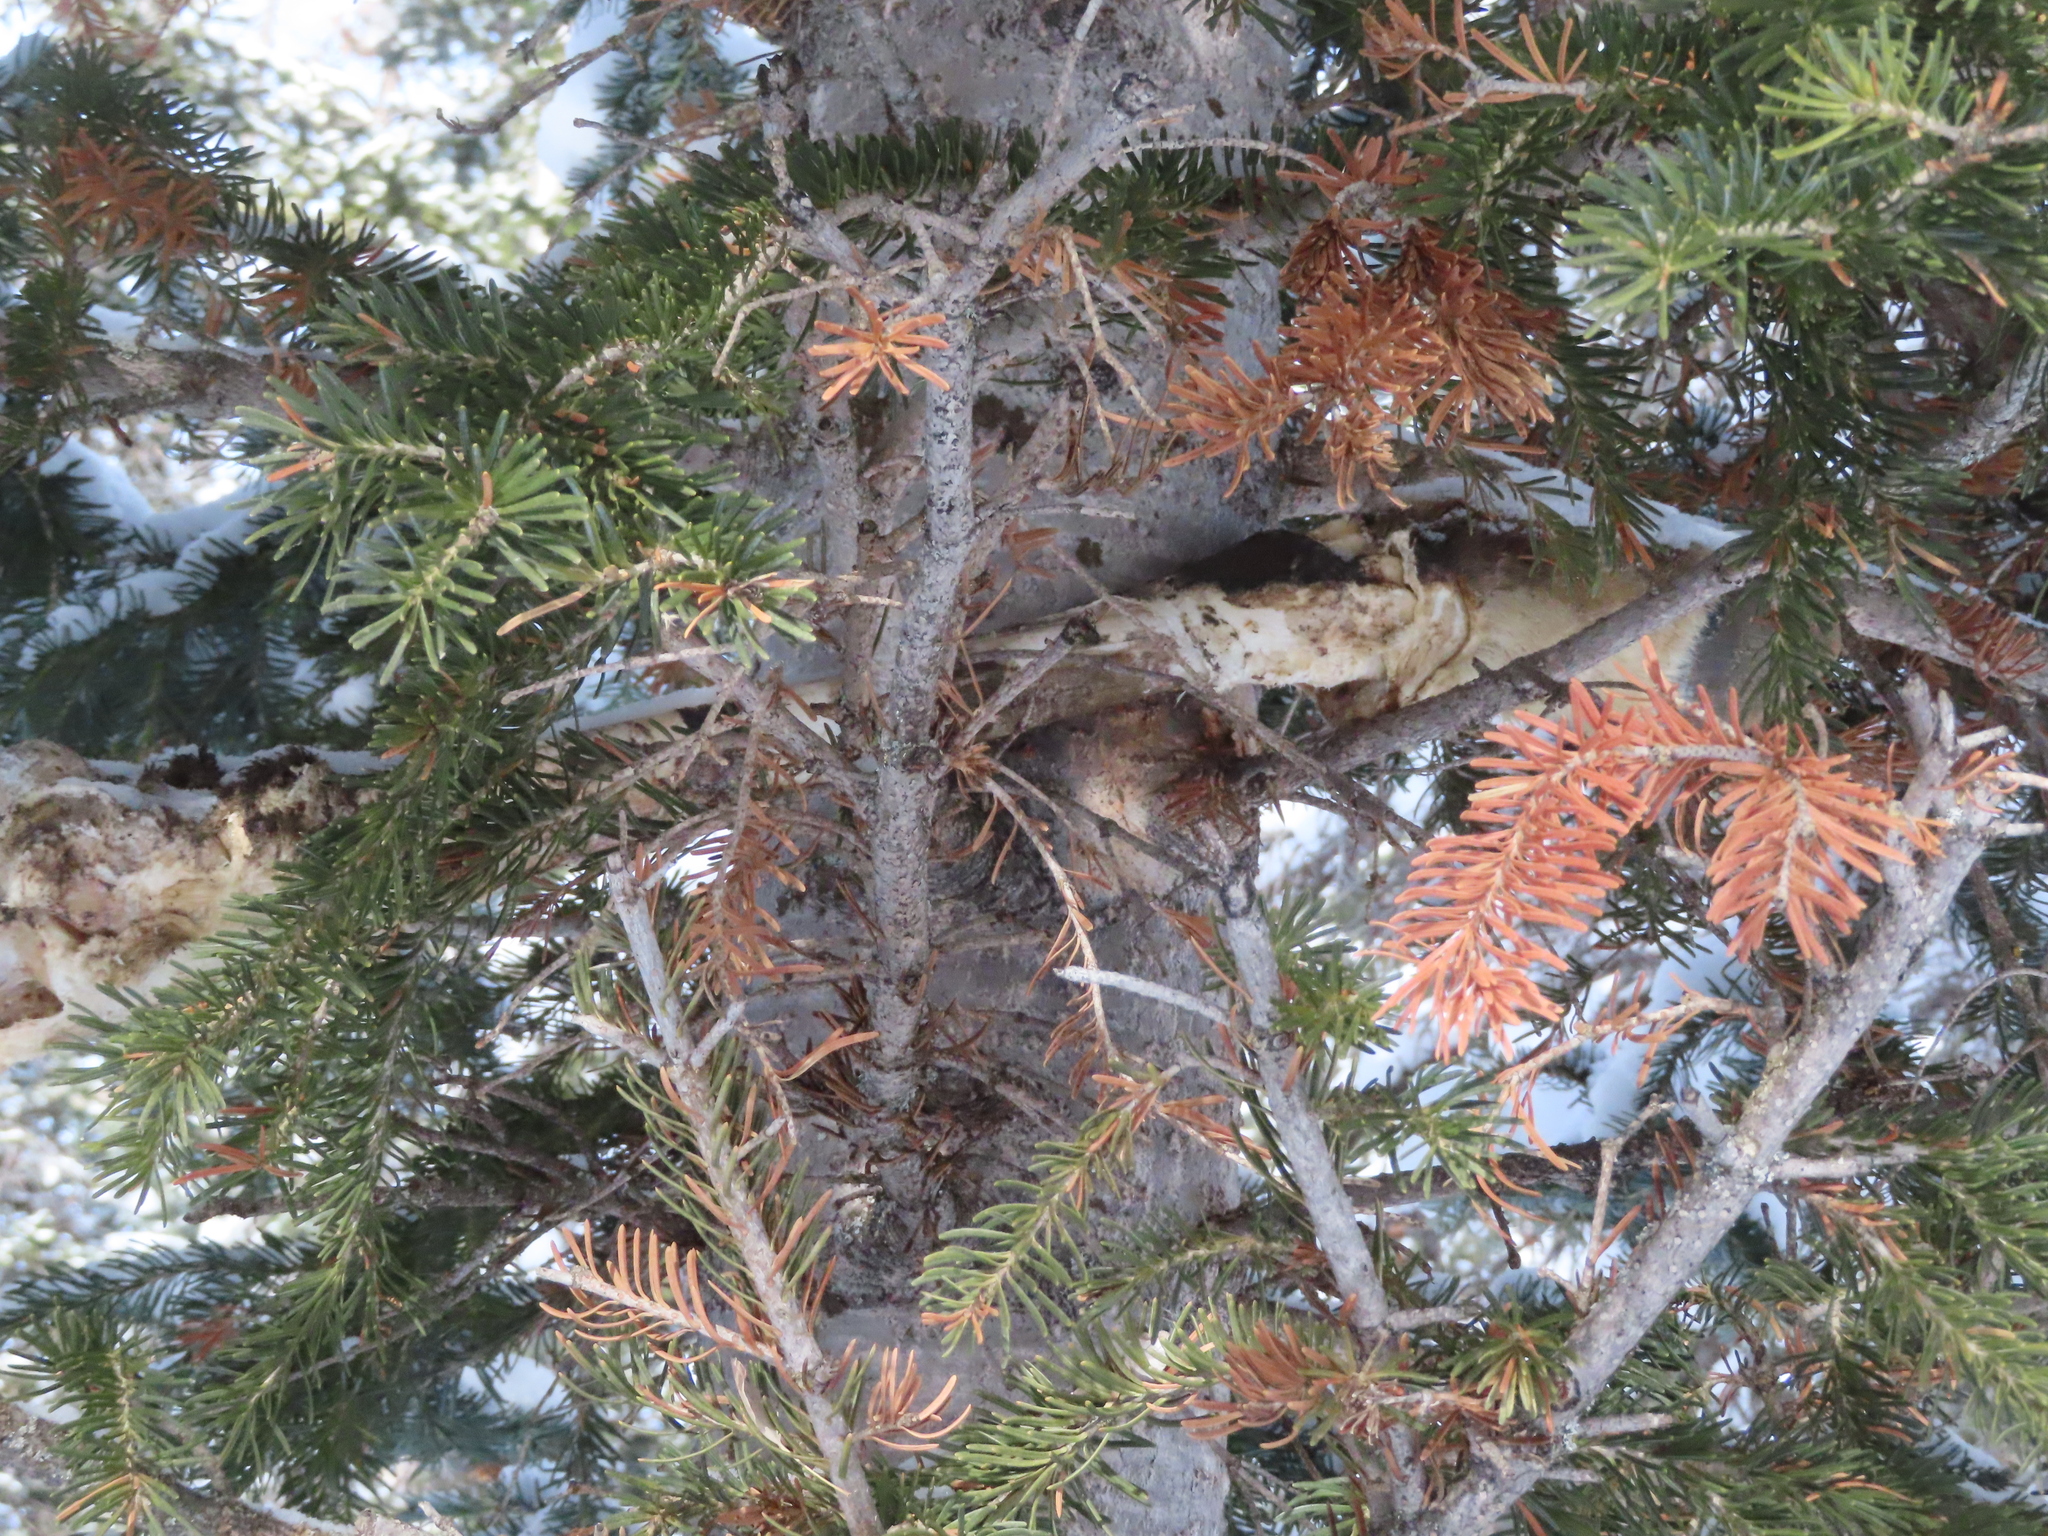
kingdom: Animalia
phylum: Chordata
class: Mammalia
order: Artiodactyla
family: Cervidae
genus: Odocoileus
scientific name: Odocoileus hemionus
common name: Mule deer
